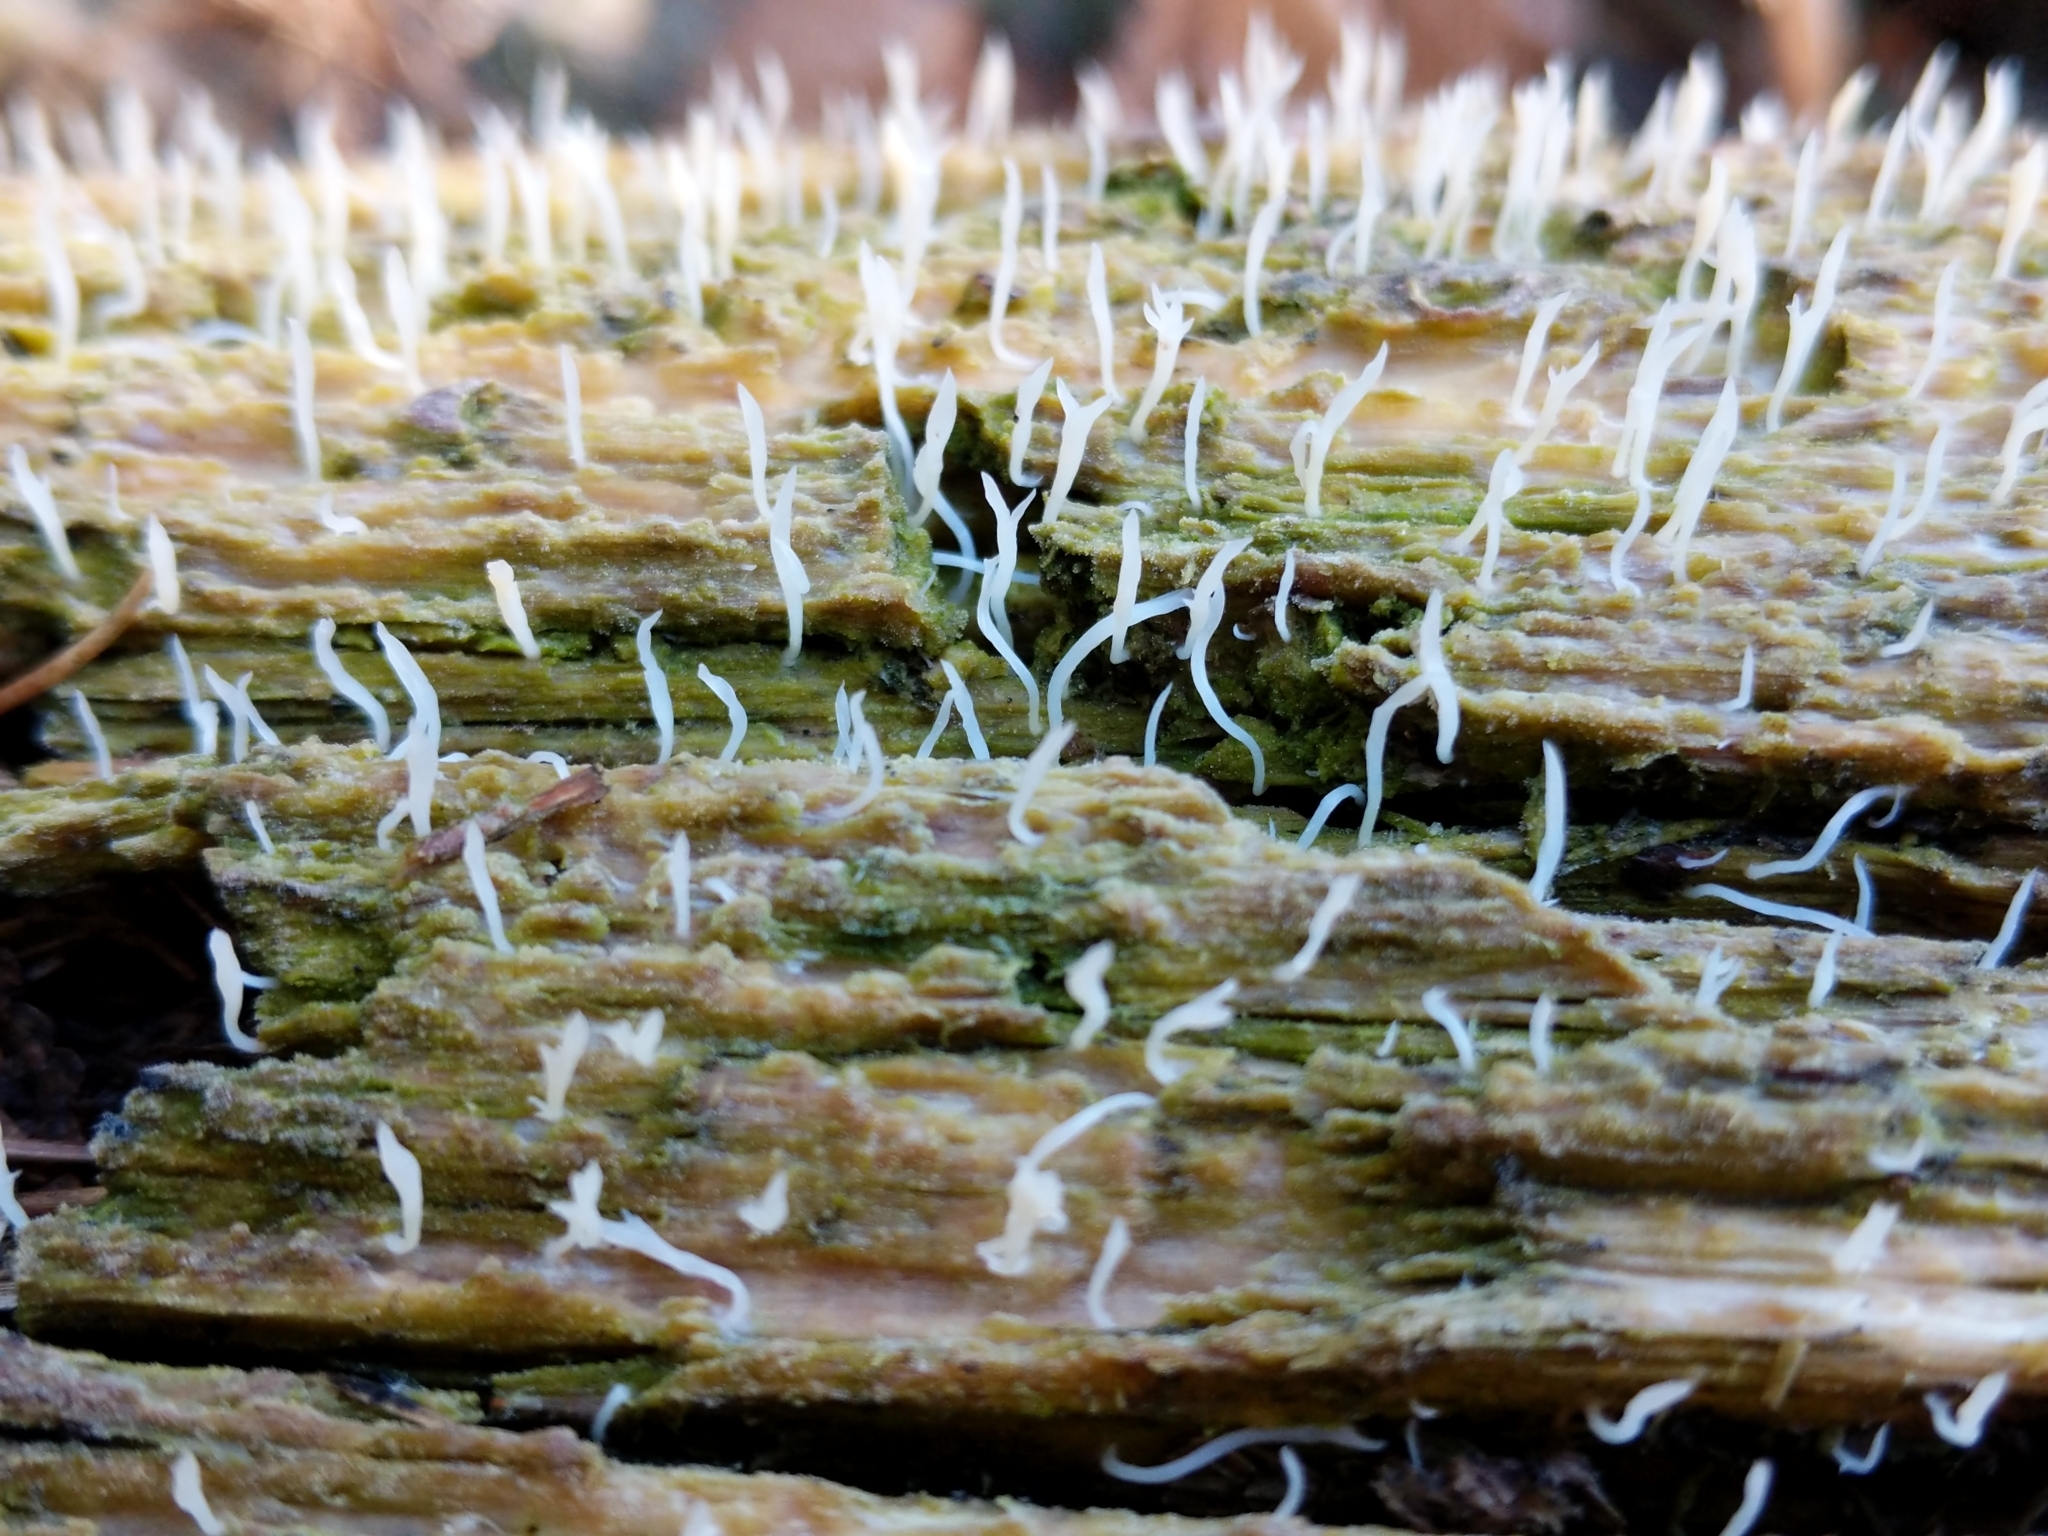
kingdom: Fungi
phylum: Basidiomycota
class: Agaricomycetes
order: Cantharellales
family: Hydnaceae
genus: Multiclavula
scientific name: Multiclavula mucida
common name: White green-algae coral
